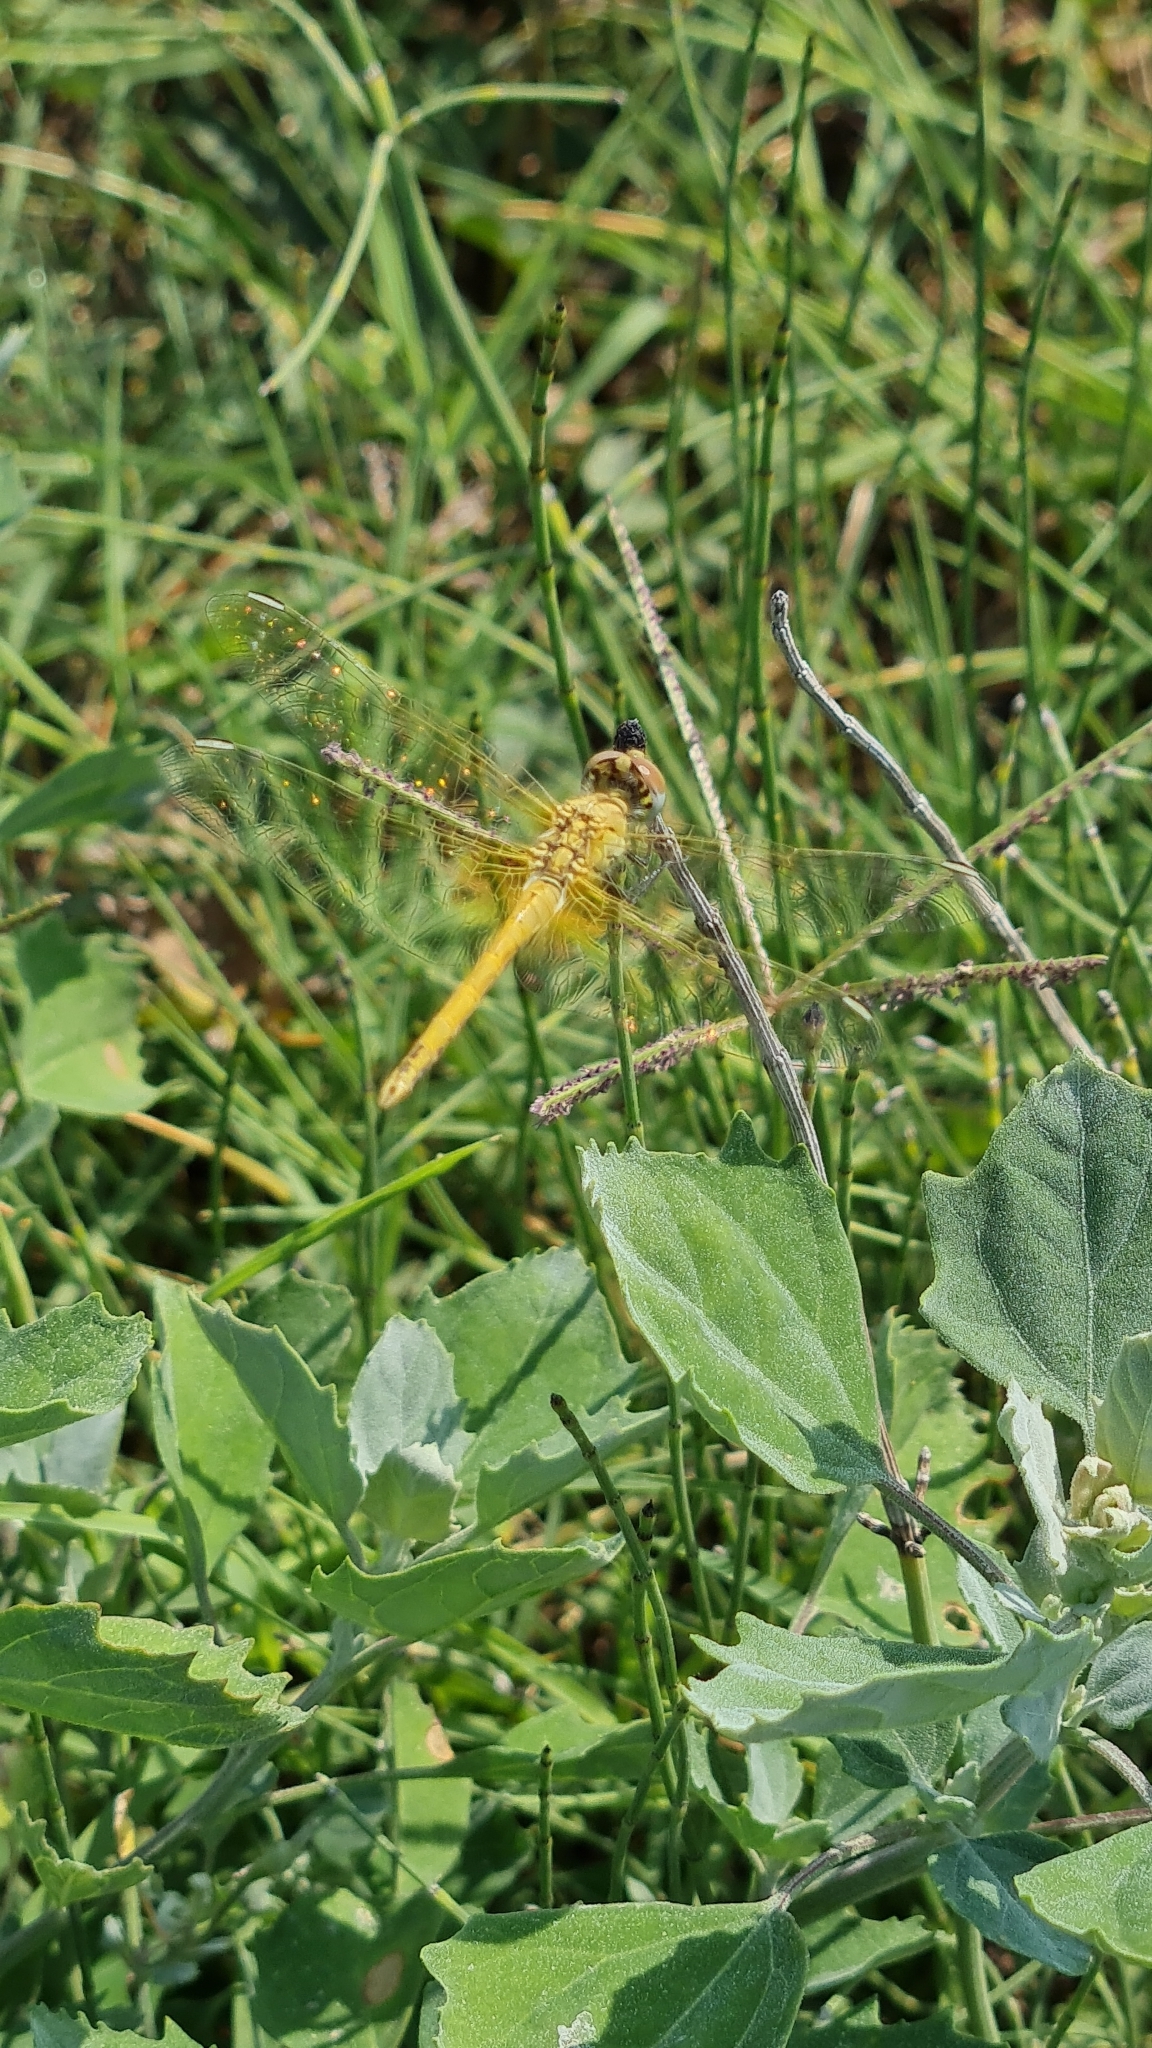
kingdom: Animalia
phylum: Arthropoda
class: Insecta
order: Odonata
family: Libellulidae
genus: Sympetrum
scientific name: Sympetrum fonscolombii
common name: Red-veined darter
